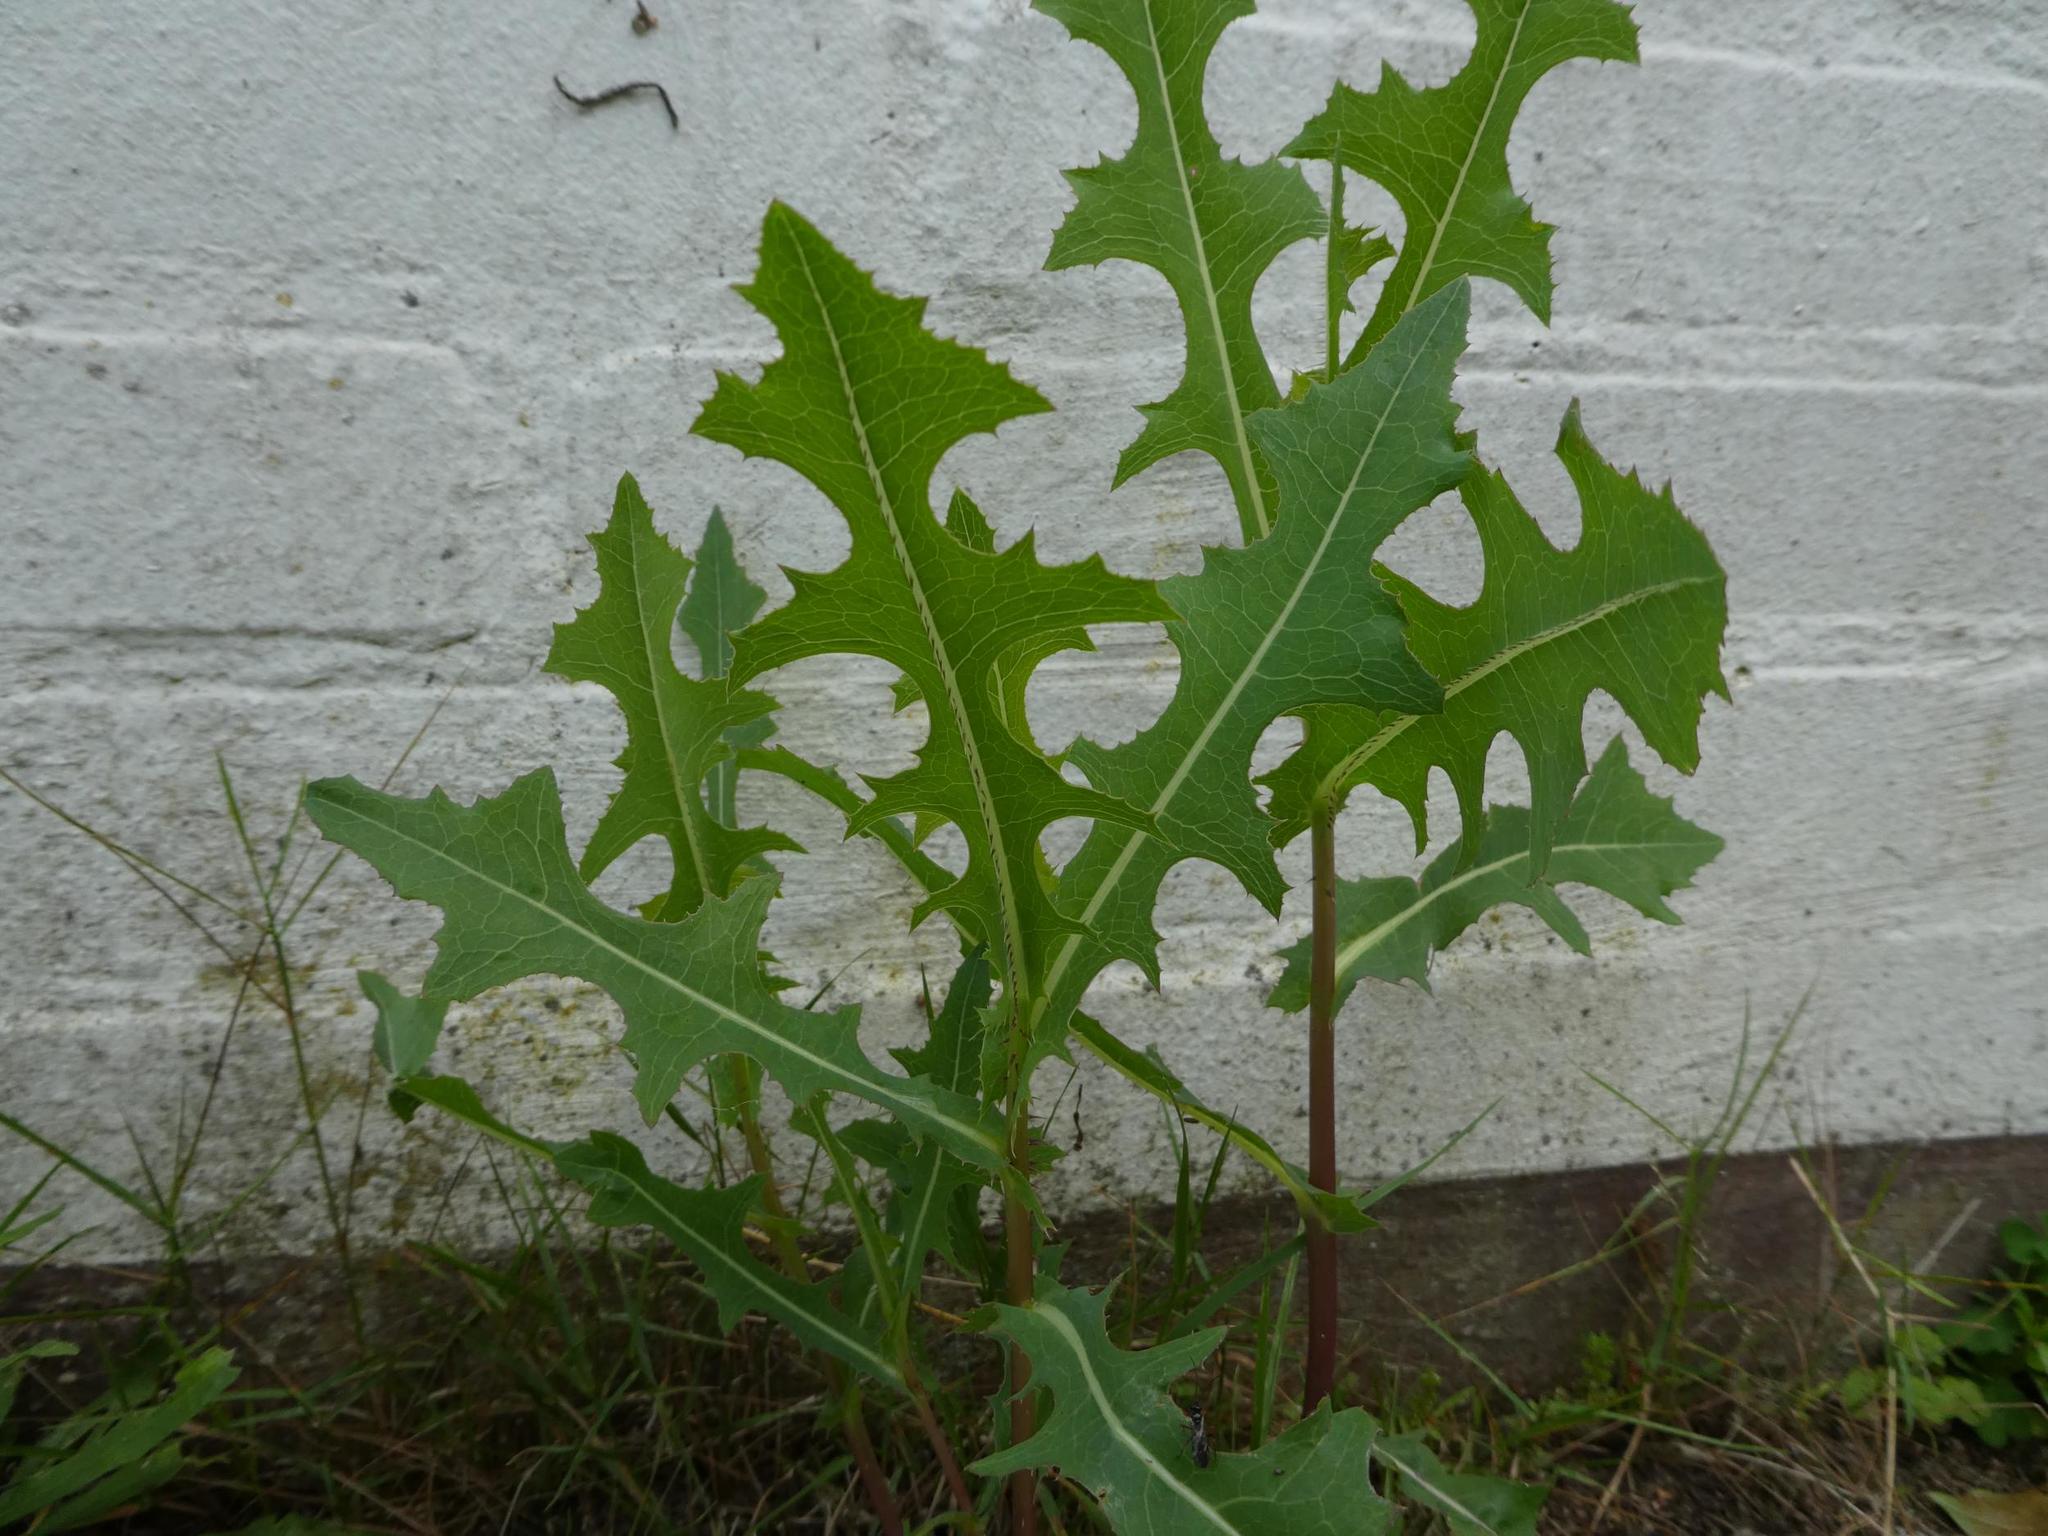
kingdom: Plantae
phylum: Tracheophyta
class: Magnoliopsida
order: Asterales
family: Asteraceae
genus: Lactuca
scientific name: Lactuca serriola
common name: Prickly lettuce
